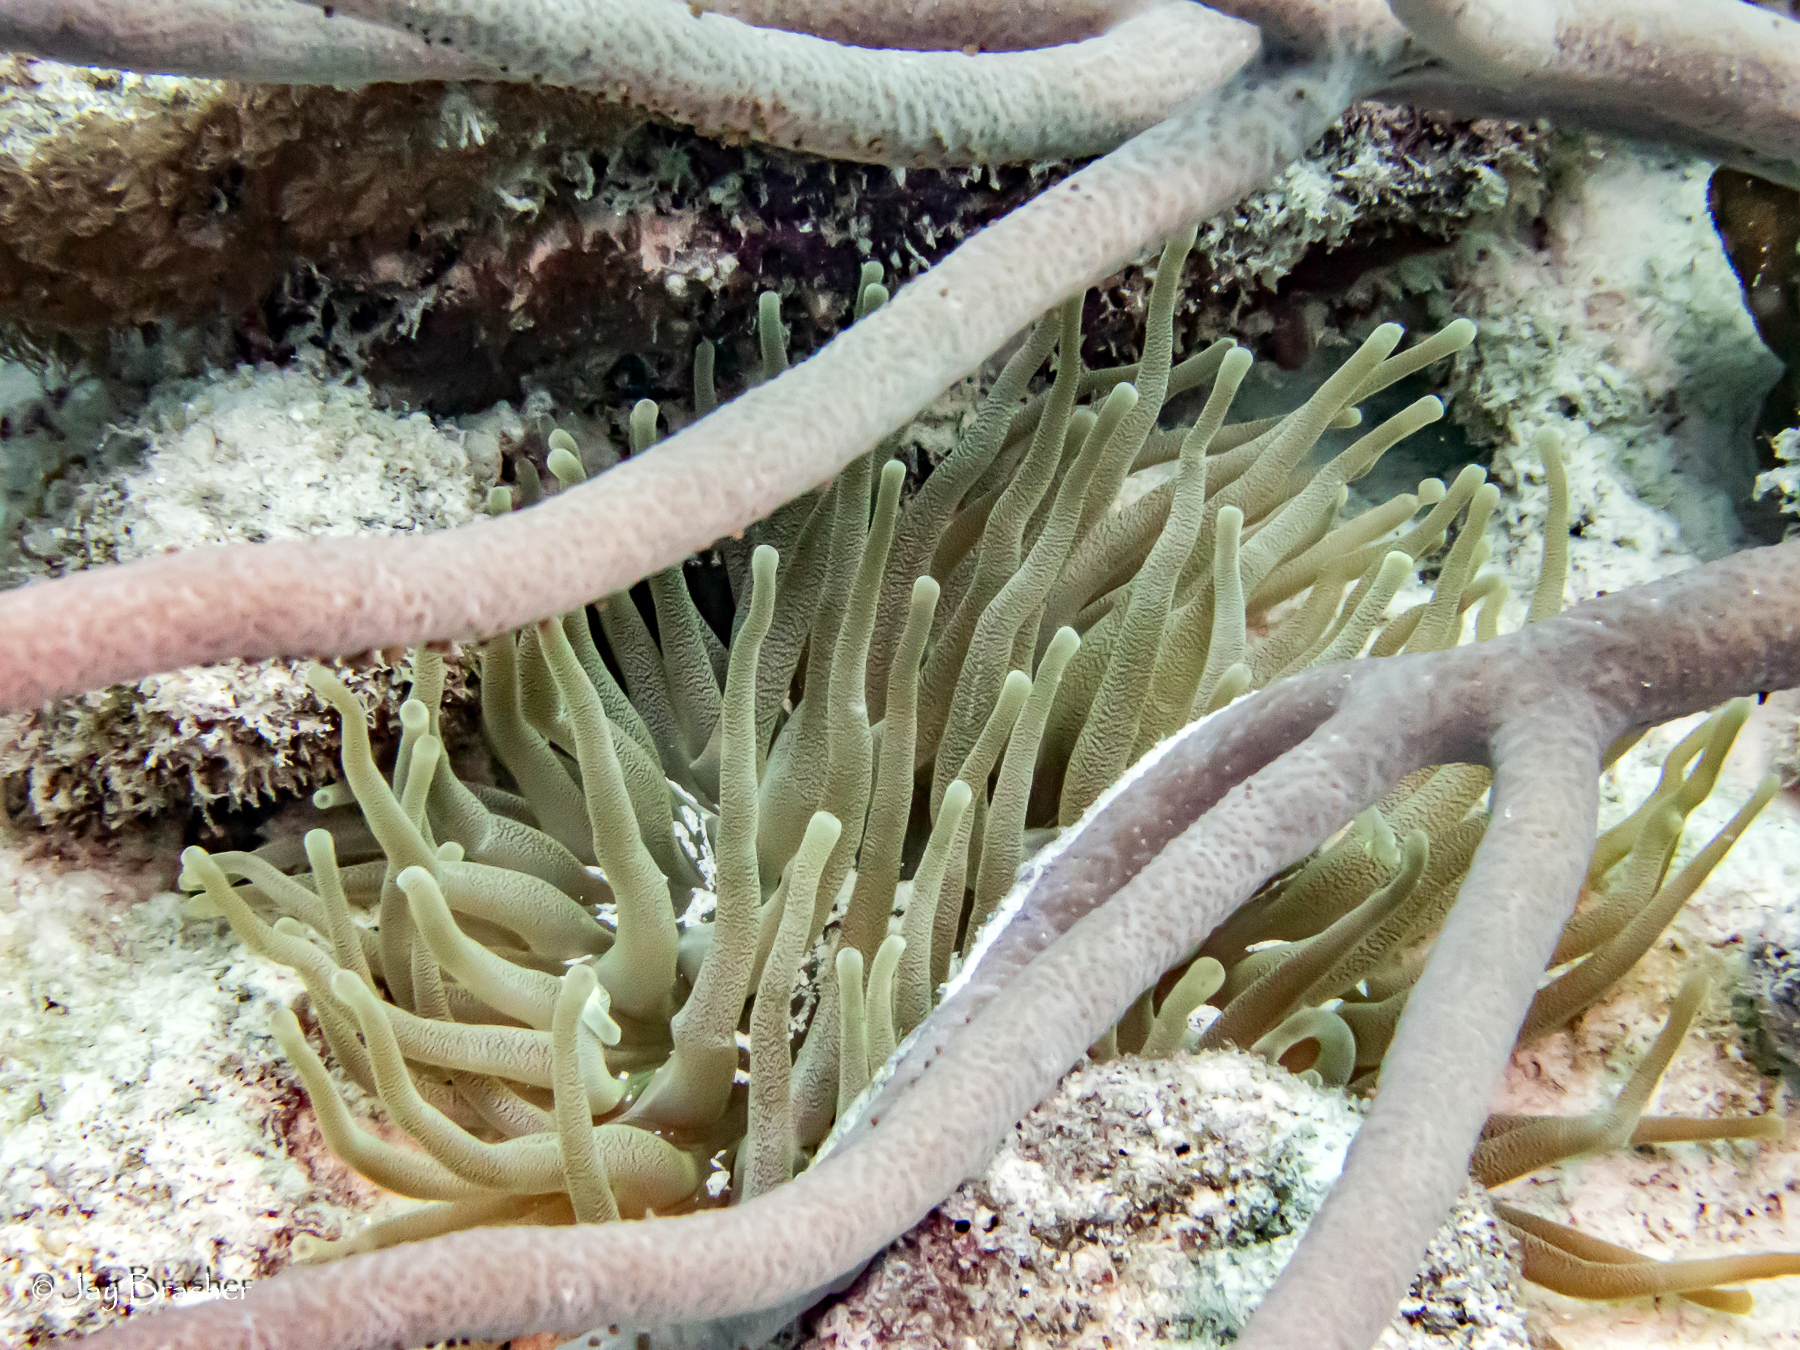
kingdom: Animalia
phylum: Cnidaria
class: Anthozoa
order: Actiniaria
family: Actiniidae
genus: Condylactis
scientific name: Condylactis gigantea
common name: Giant caribbean anemone
